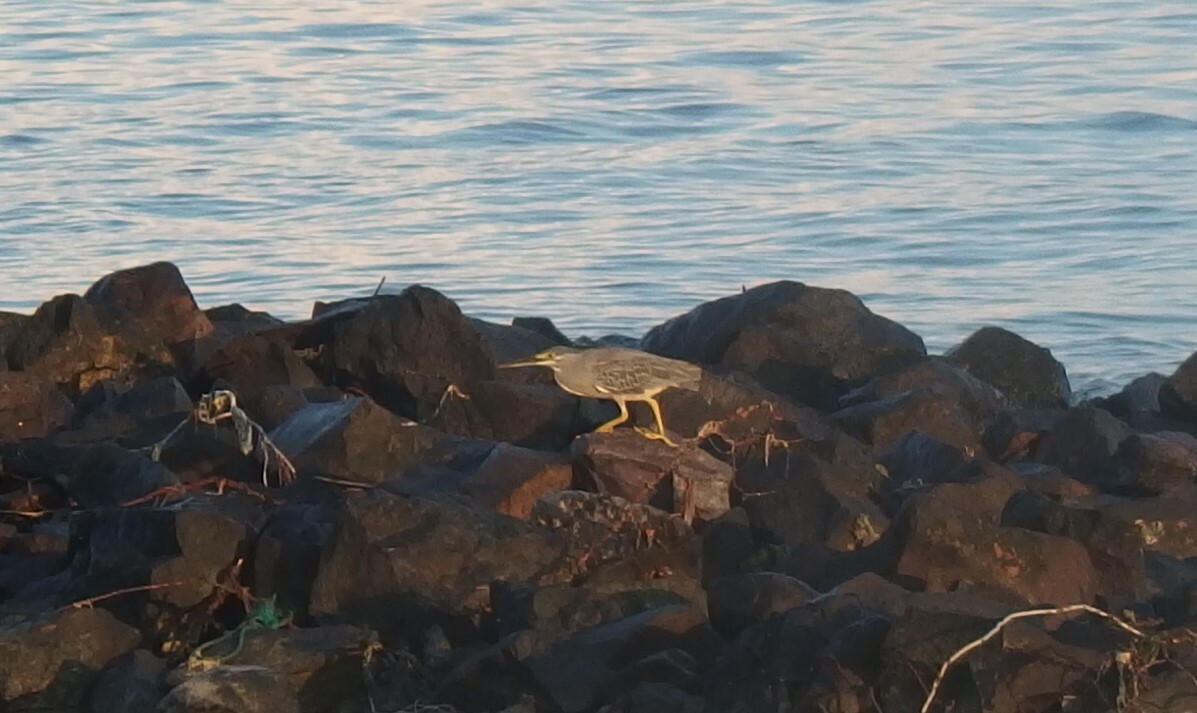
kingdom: Animalia
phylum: Chordata
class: Aves
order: Pelecaniformes
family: Ardeidae
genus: Butorides
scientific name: Butorides striata
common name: Striated heron
